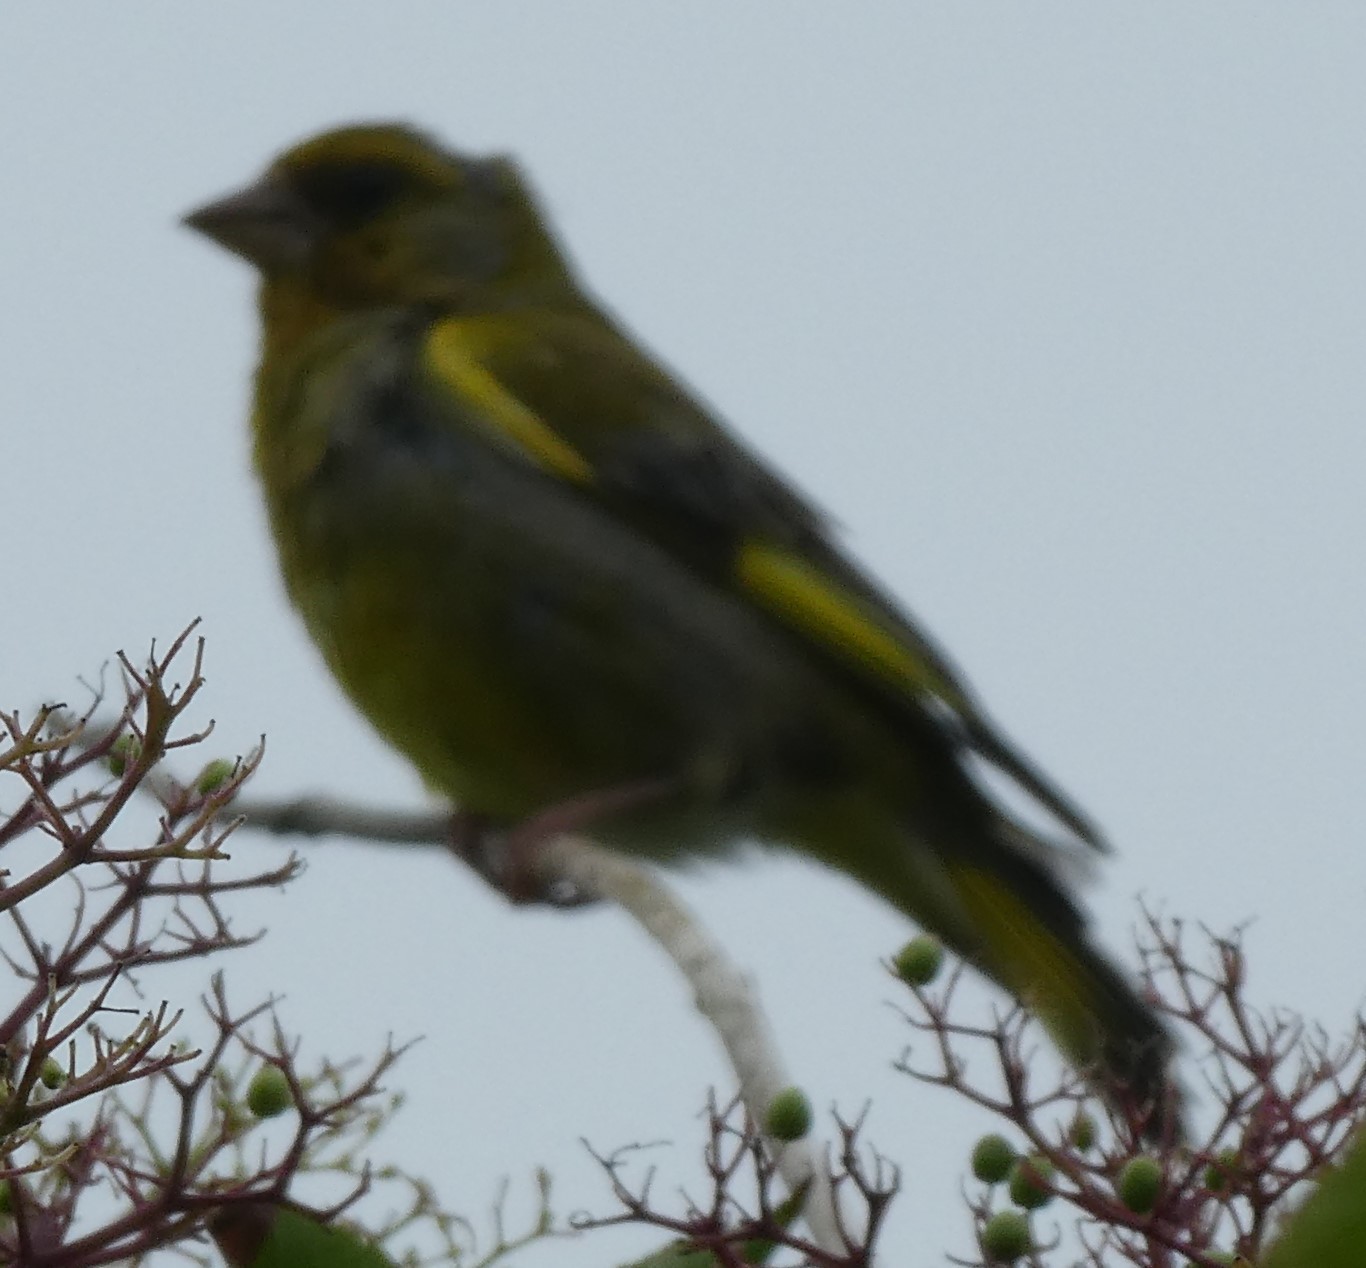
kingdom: Plantae
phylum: Tracheophyta
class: Liliopsida
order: Poales
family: Poaceae
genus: Chloris
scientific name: Chloris chloris
